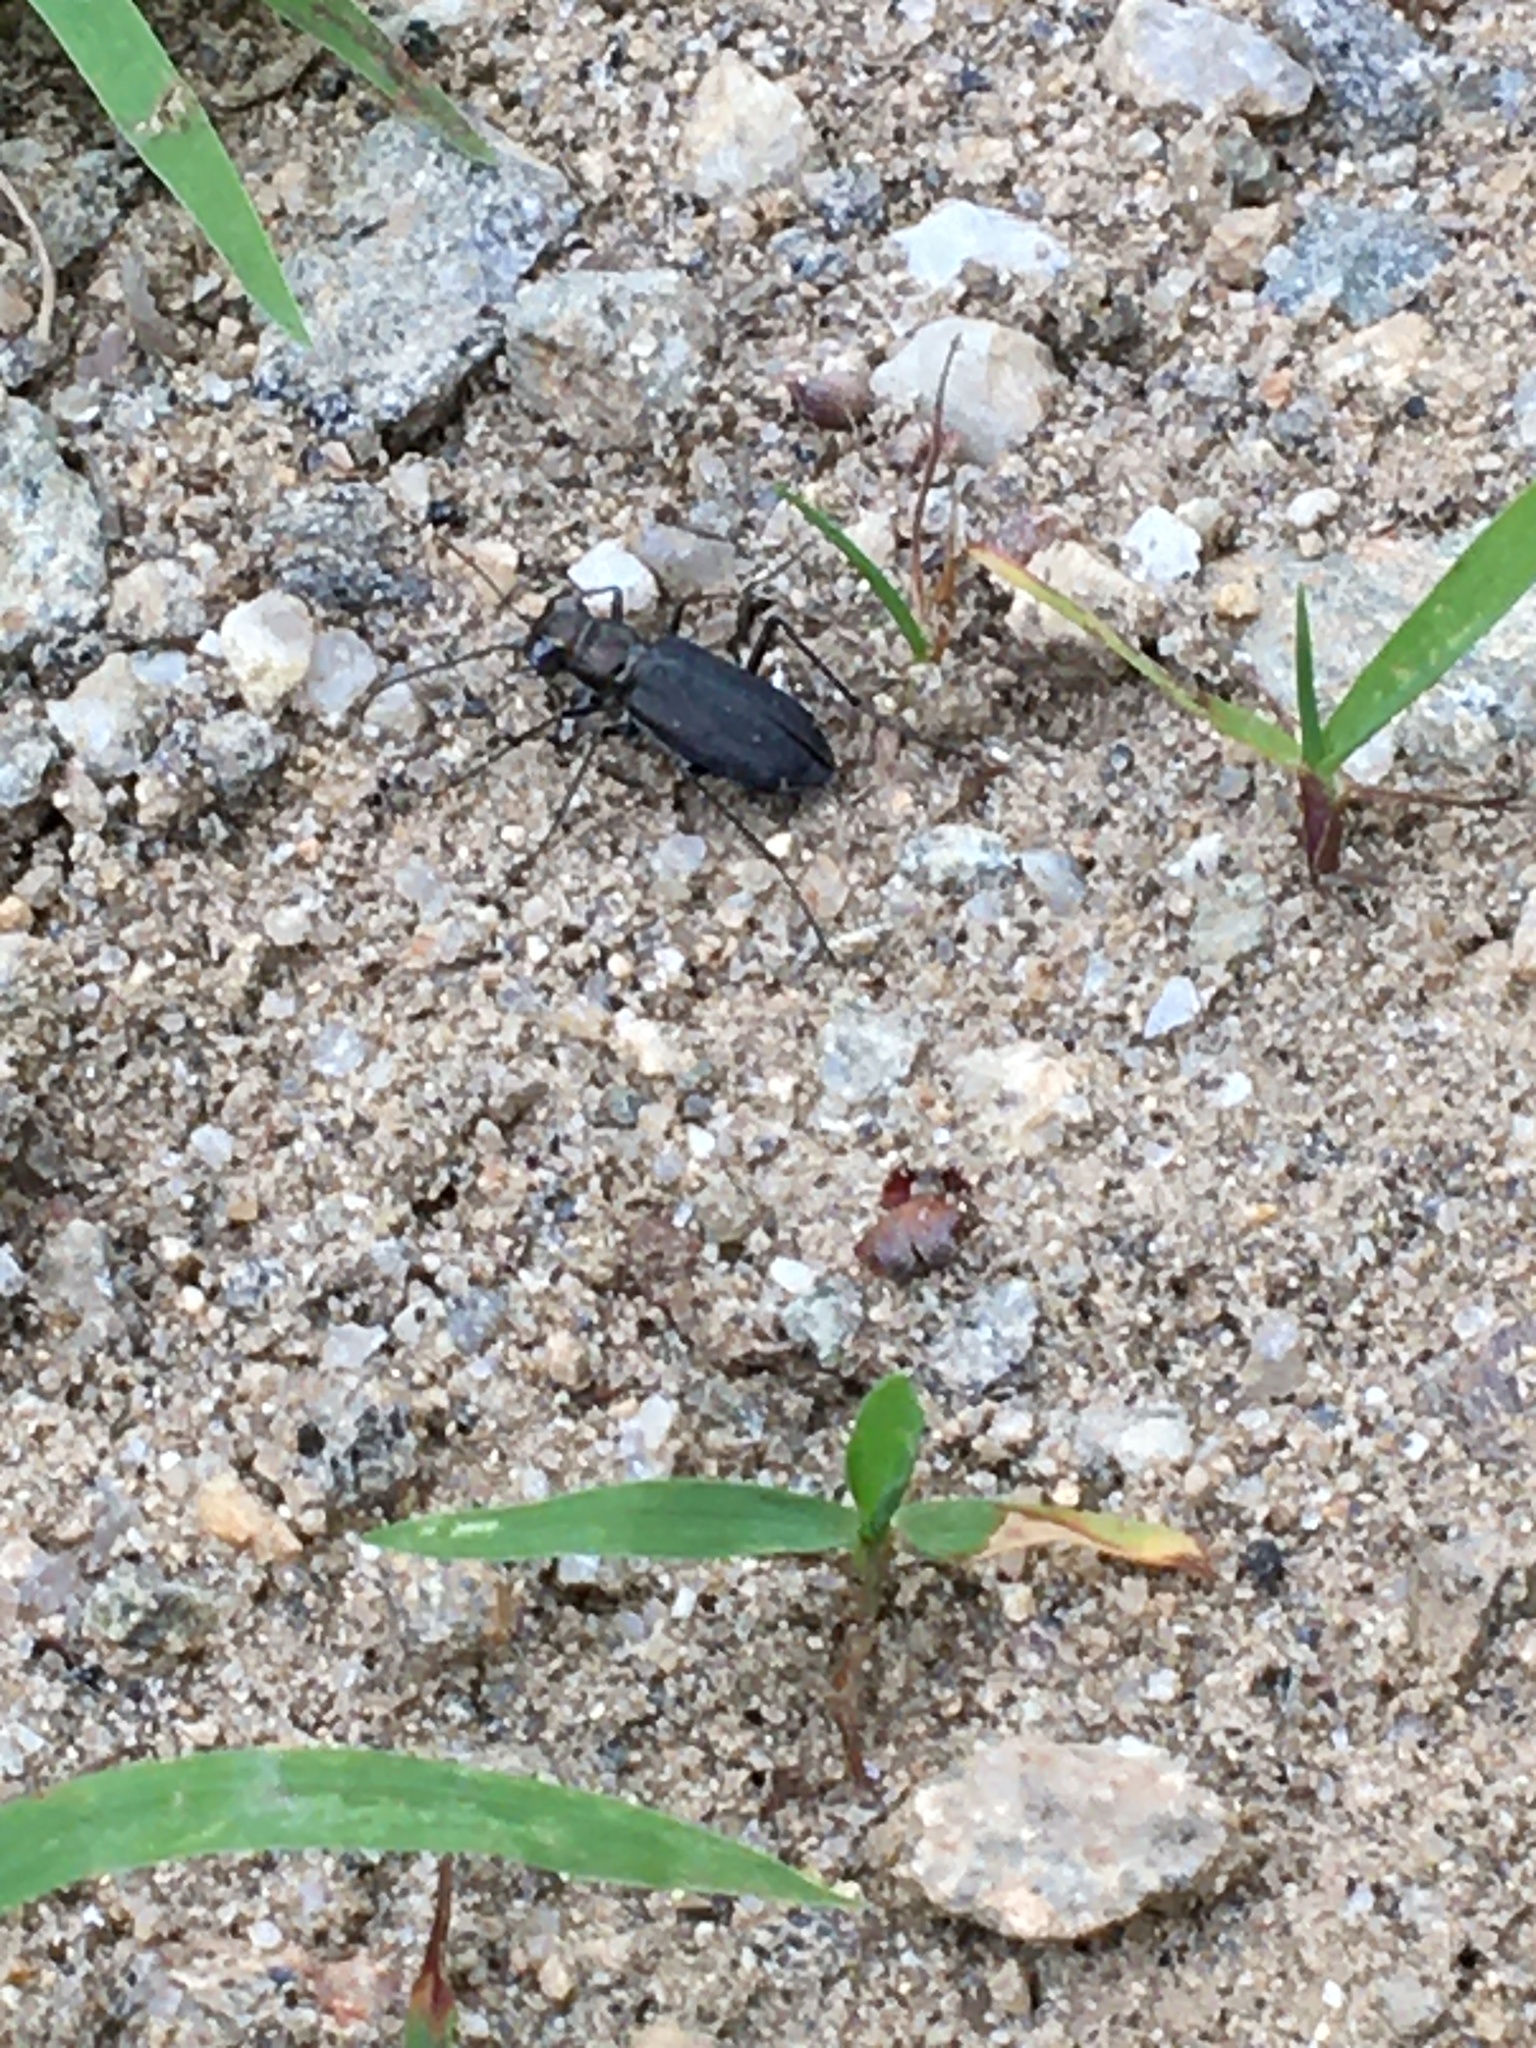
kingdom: Animalia
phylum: Arthropoda
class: Insecta
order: Coleoptera
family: Carabidae
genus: Cicindela
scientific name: Cicindela punctulata
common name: Punctured tiger beetle
